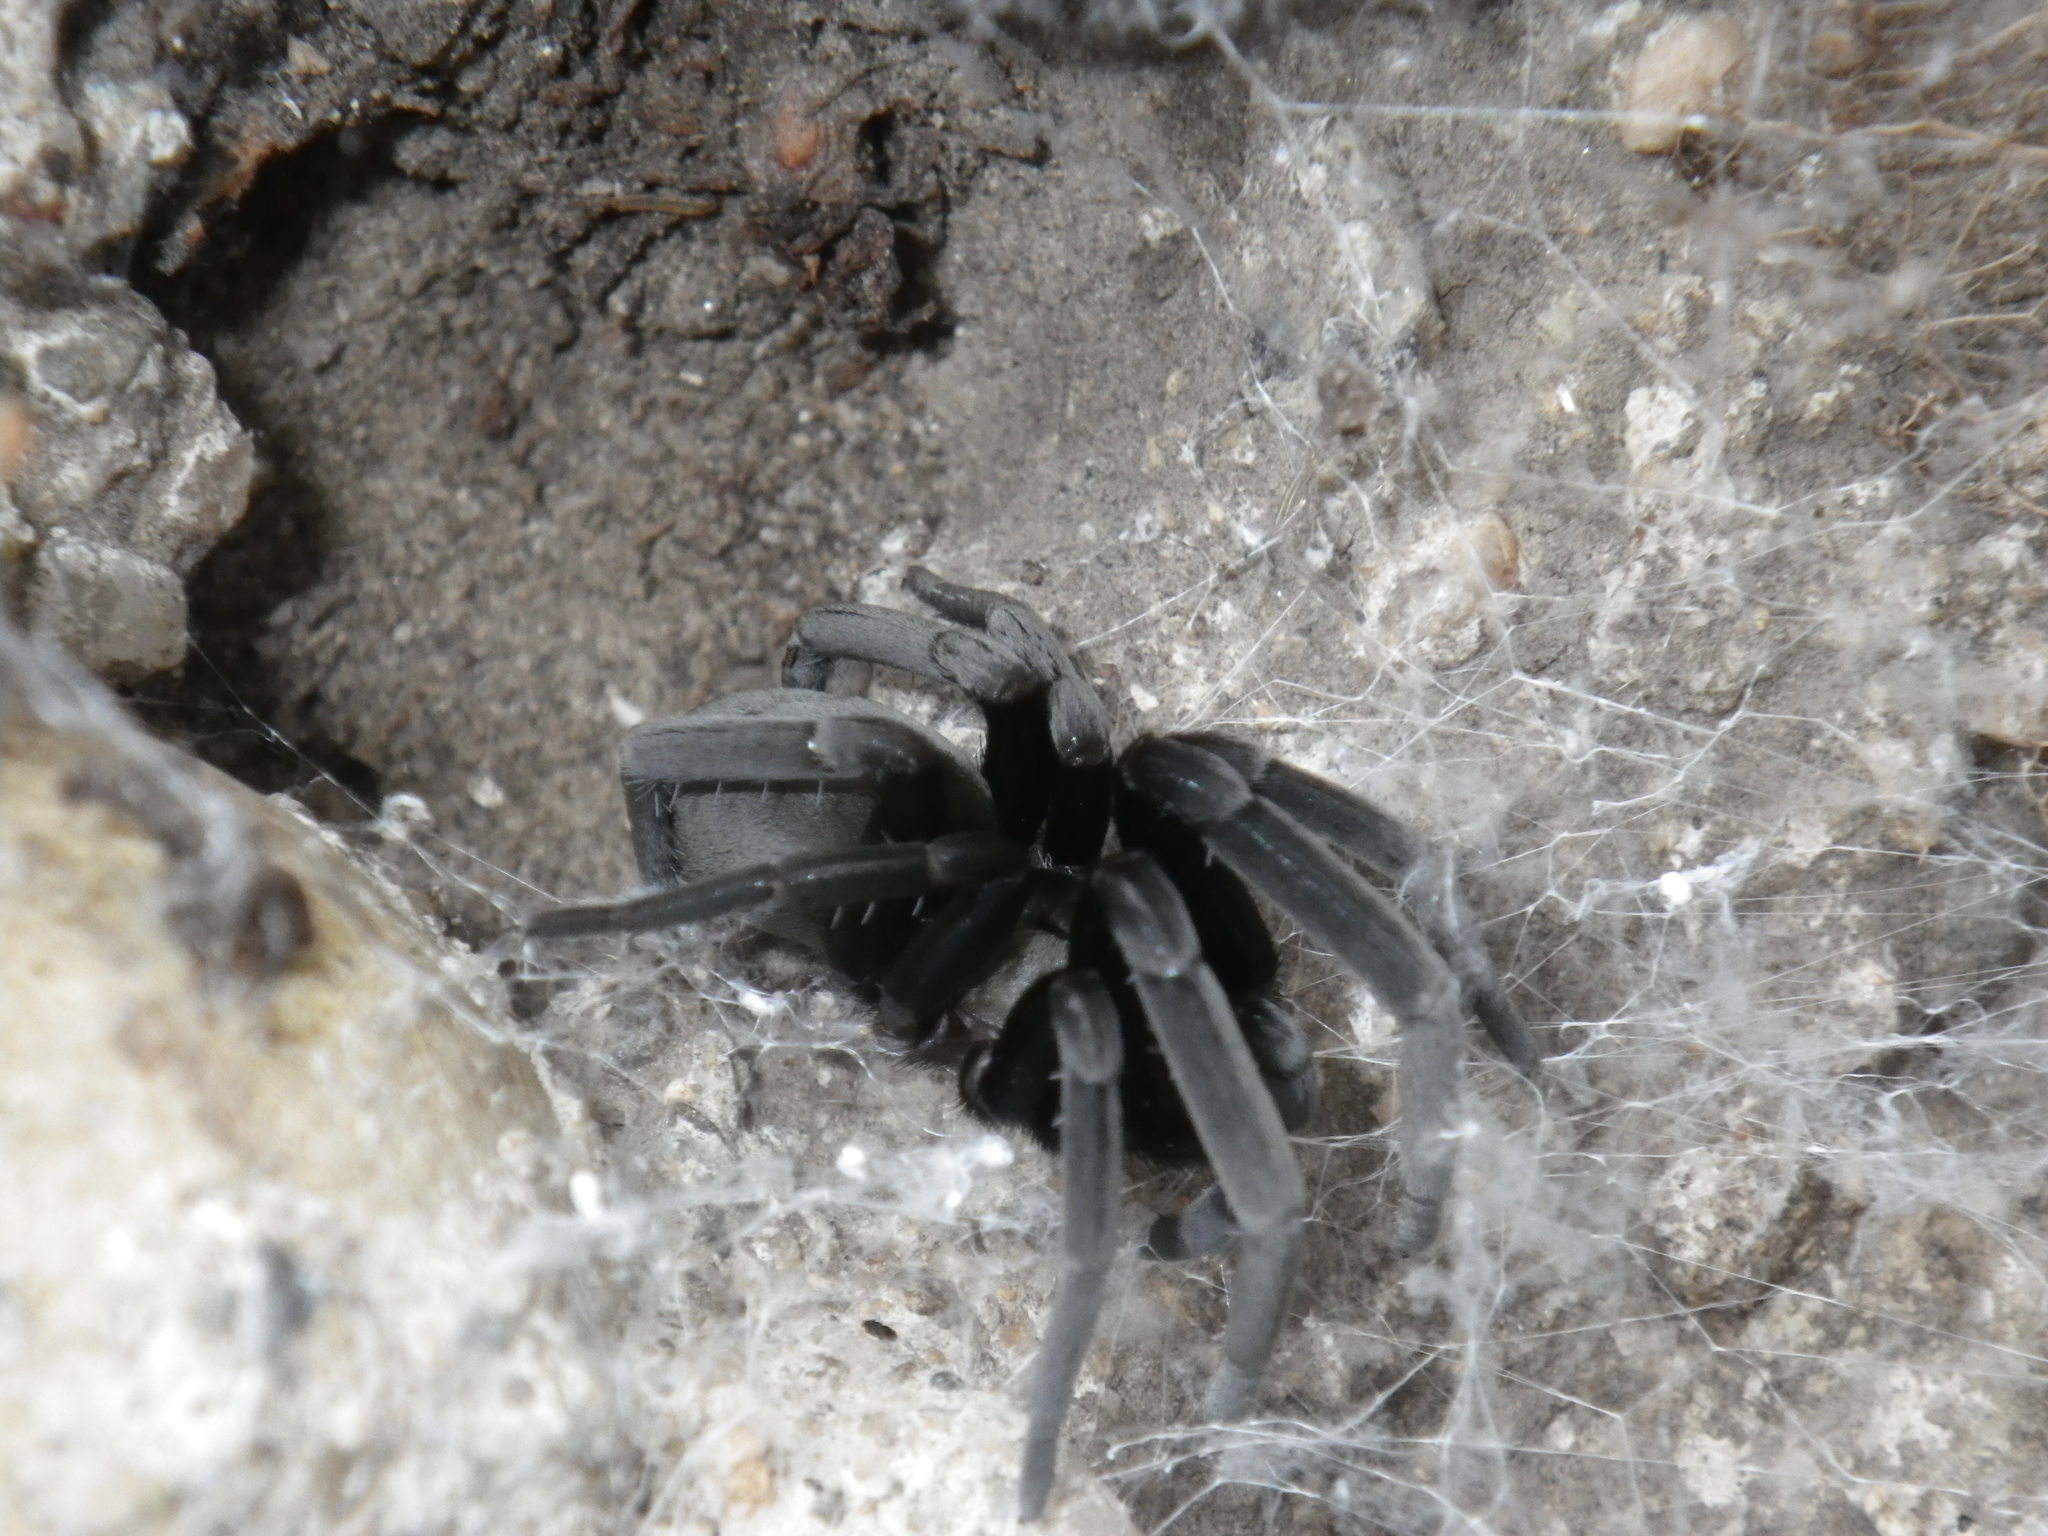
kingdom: Animalia
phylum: Arthropoda
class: Arachnida
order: Araneae
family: Filistatidae
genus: Kukulcania
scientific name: Kukulcania geophila
